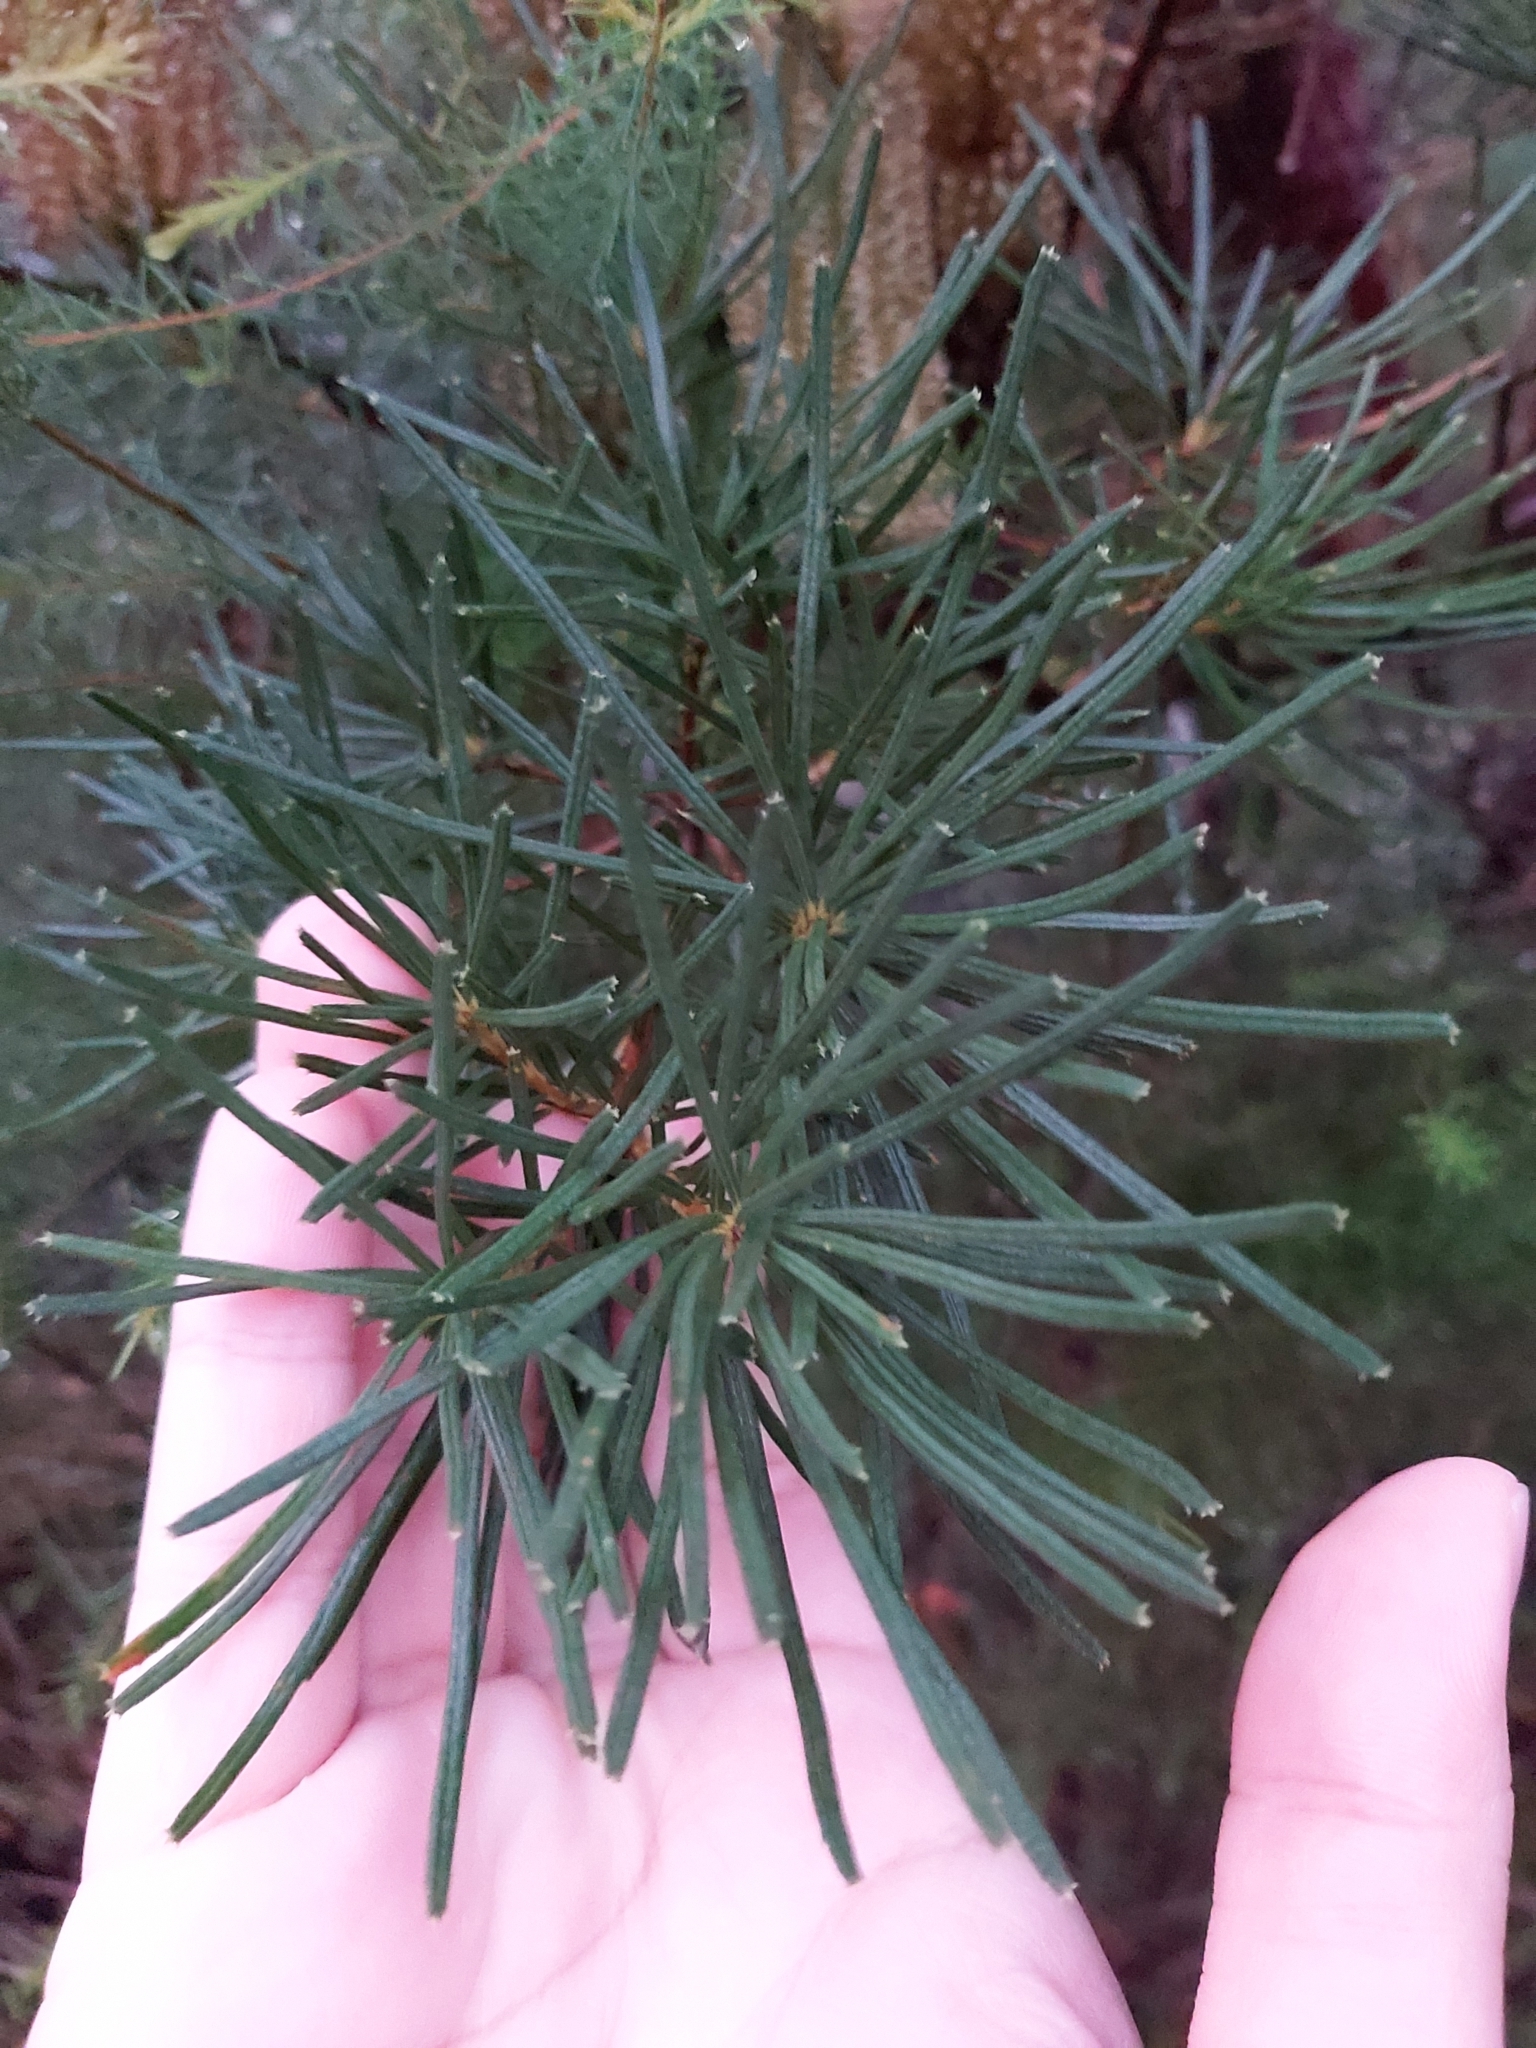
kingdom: Plantae
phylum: Tracheophyta
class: Magnoliopsida
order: Proteales
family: Proteaceae
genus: Banksia
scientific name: Banksia spinulosa
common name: Hairpin banksia
